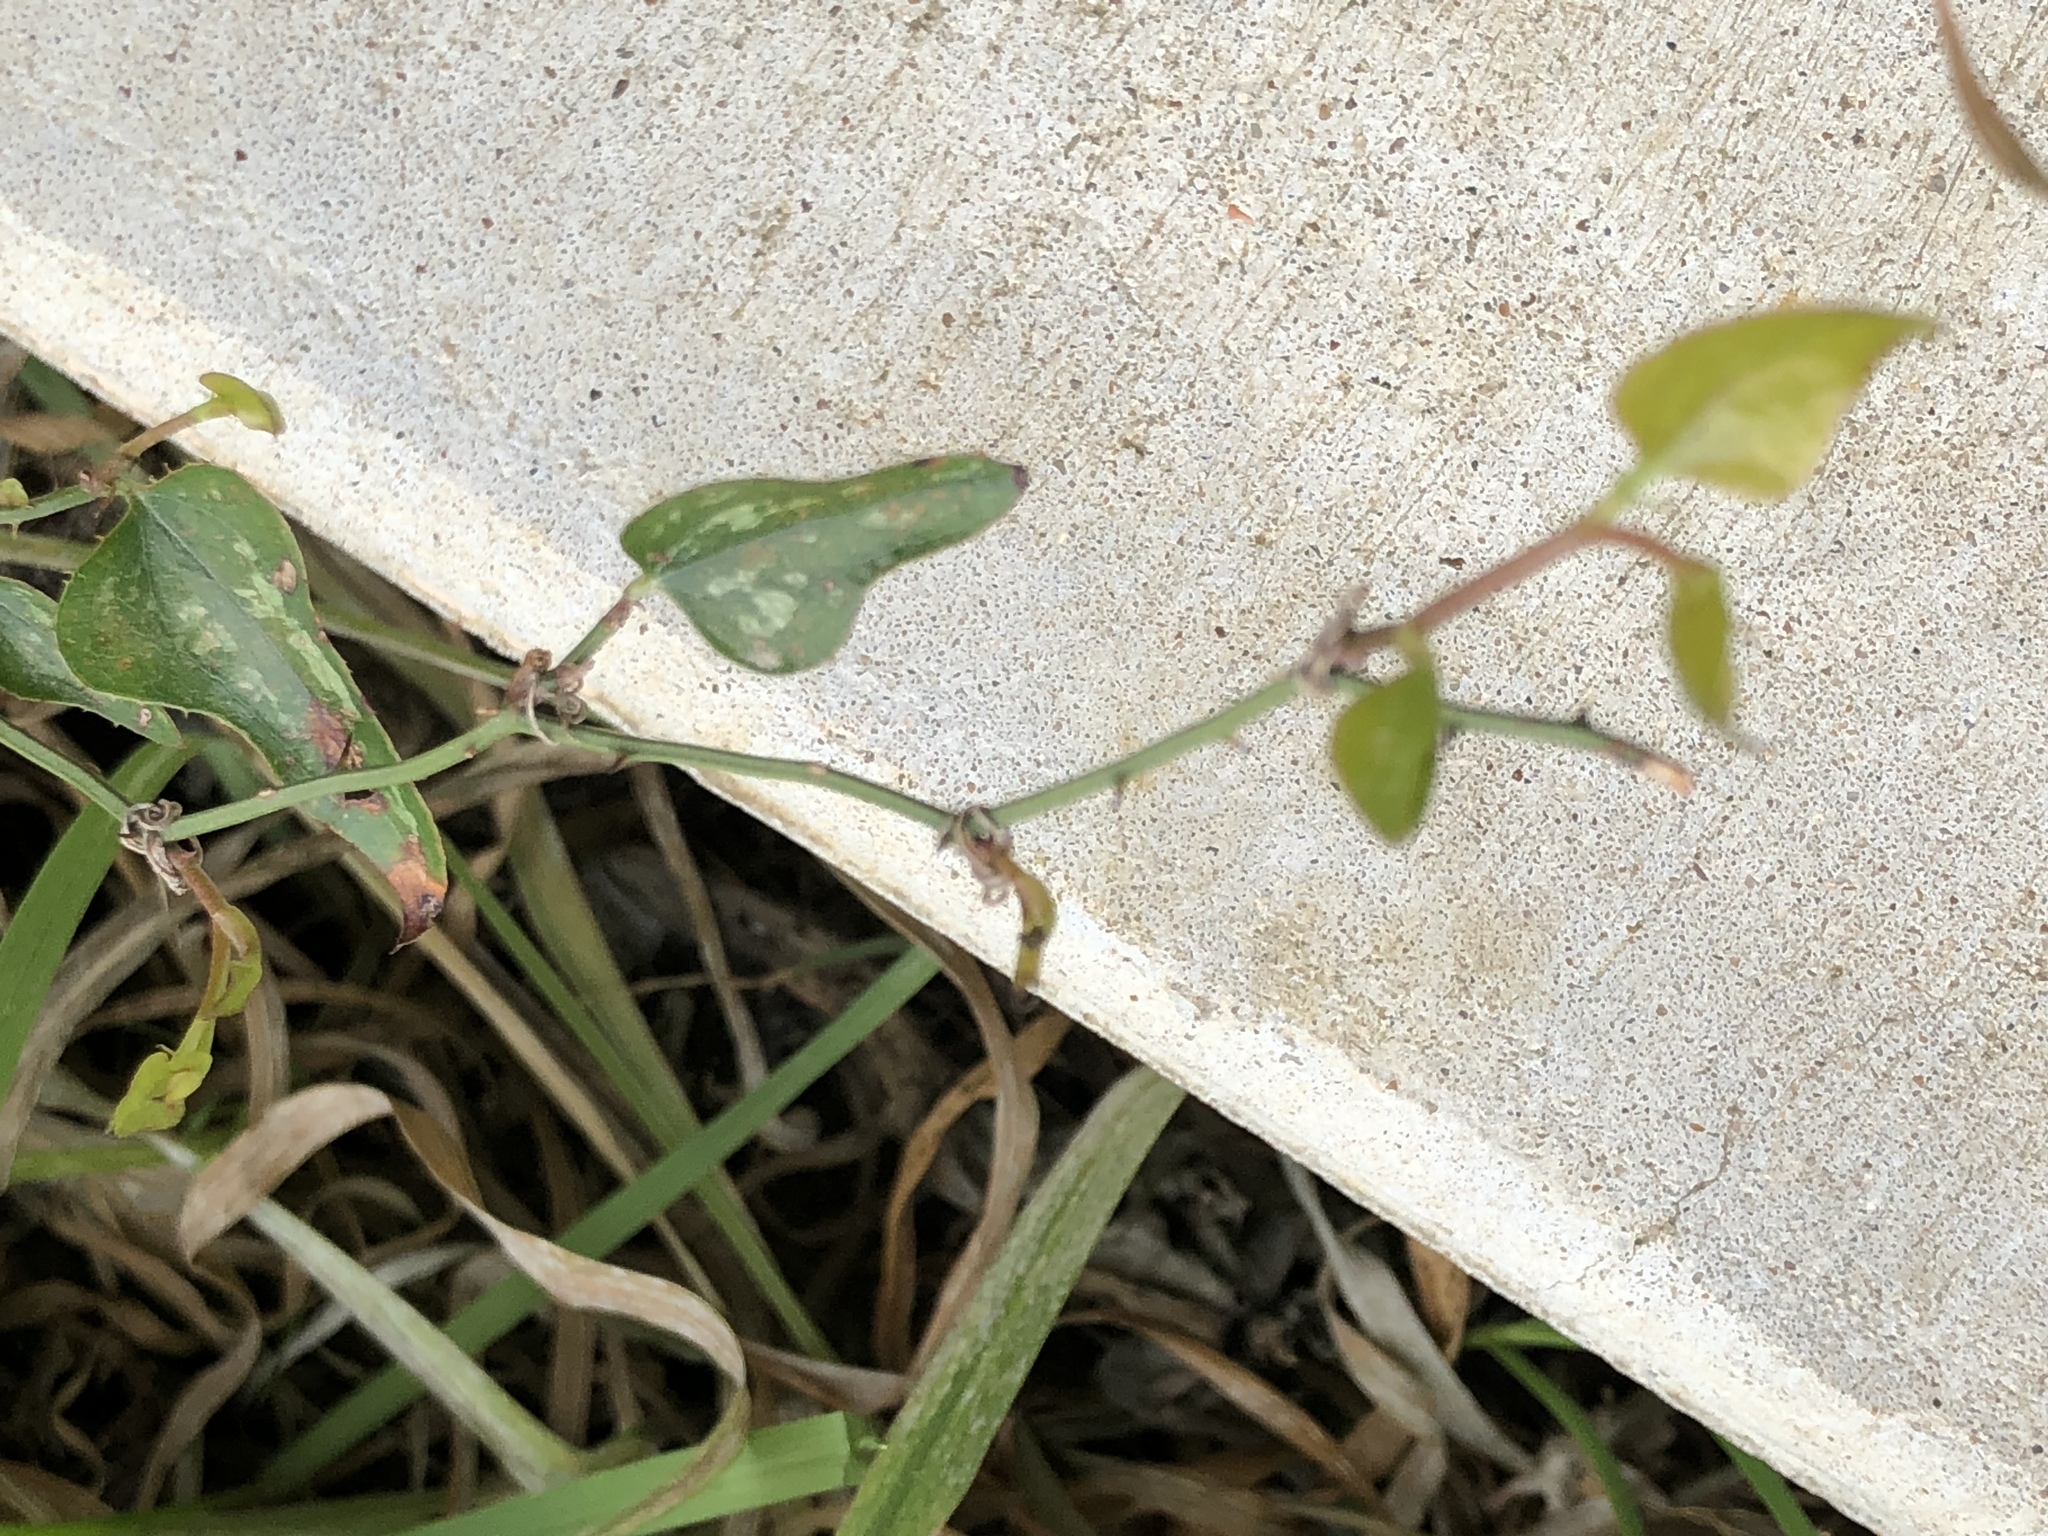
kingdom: Plantae
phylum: Tracheophyta
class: Liliopsida
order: Liliales
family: Smilacaceae
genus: Smilax
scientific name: Smilax bona-nox
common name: Catbrier
